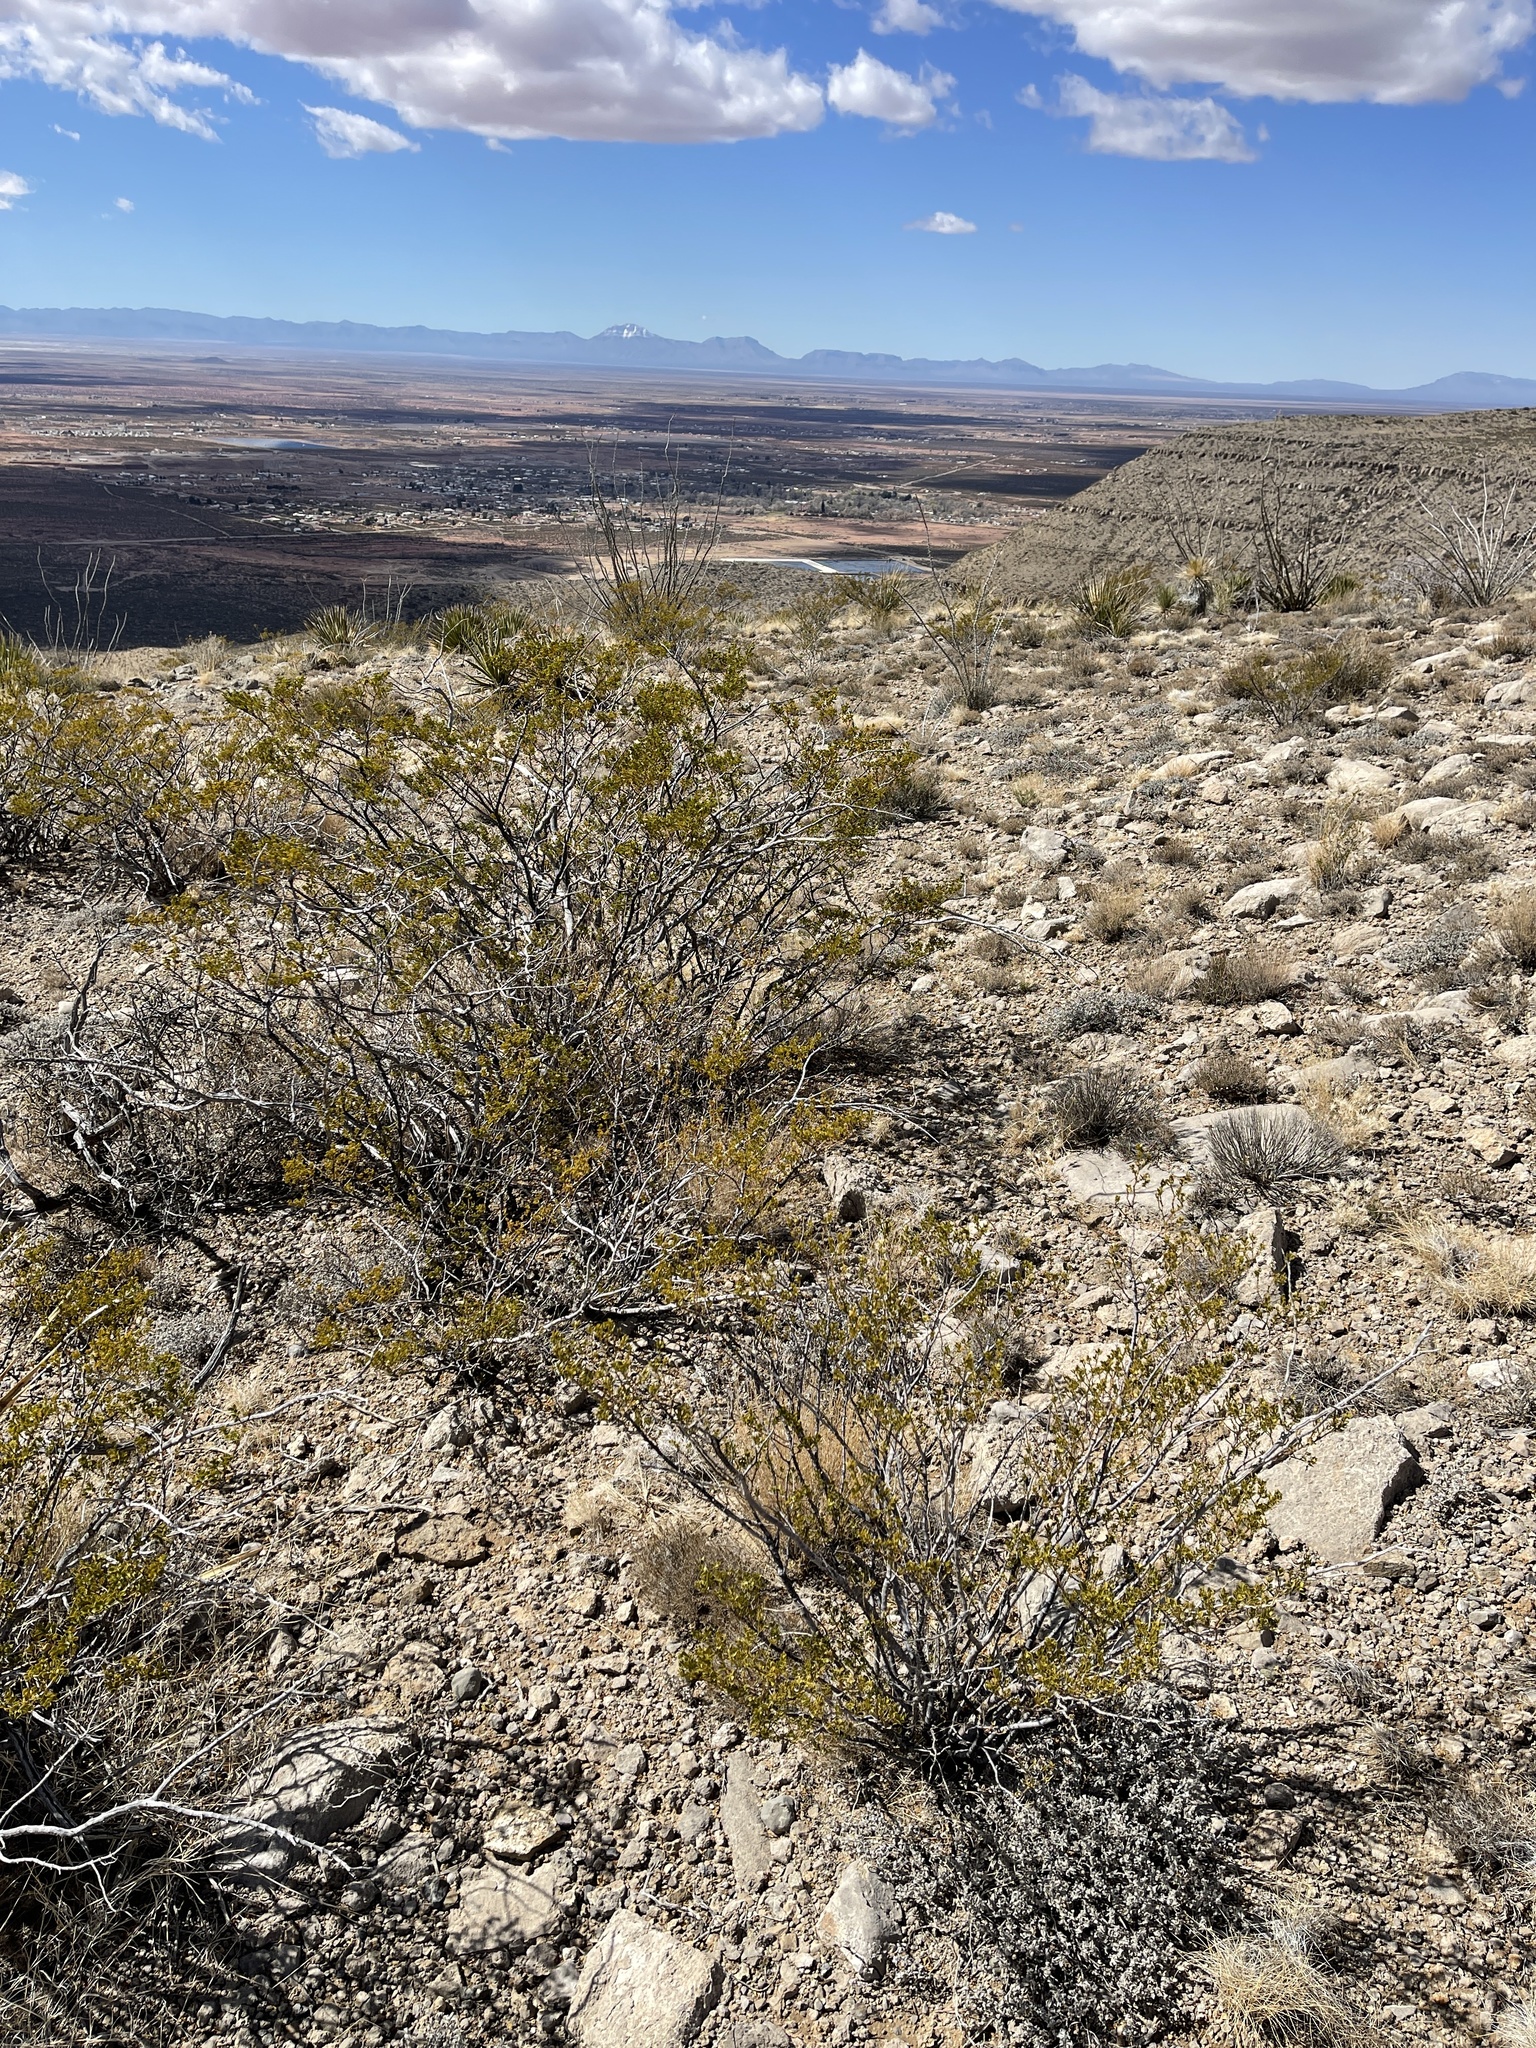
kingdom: Plantae
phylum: Tracheophyta
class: Magnoliopsida
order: Zygophyllales
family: Zygophyllaceae
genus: Larrea
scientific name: Larrea tridentata
